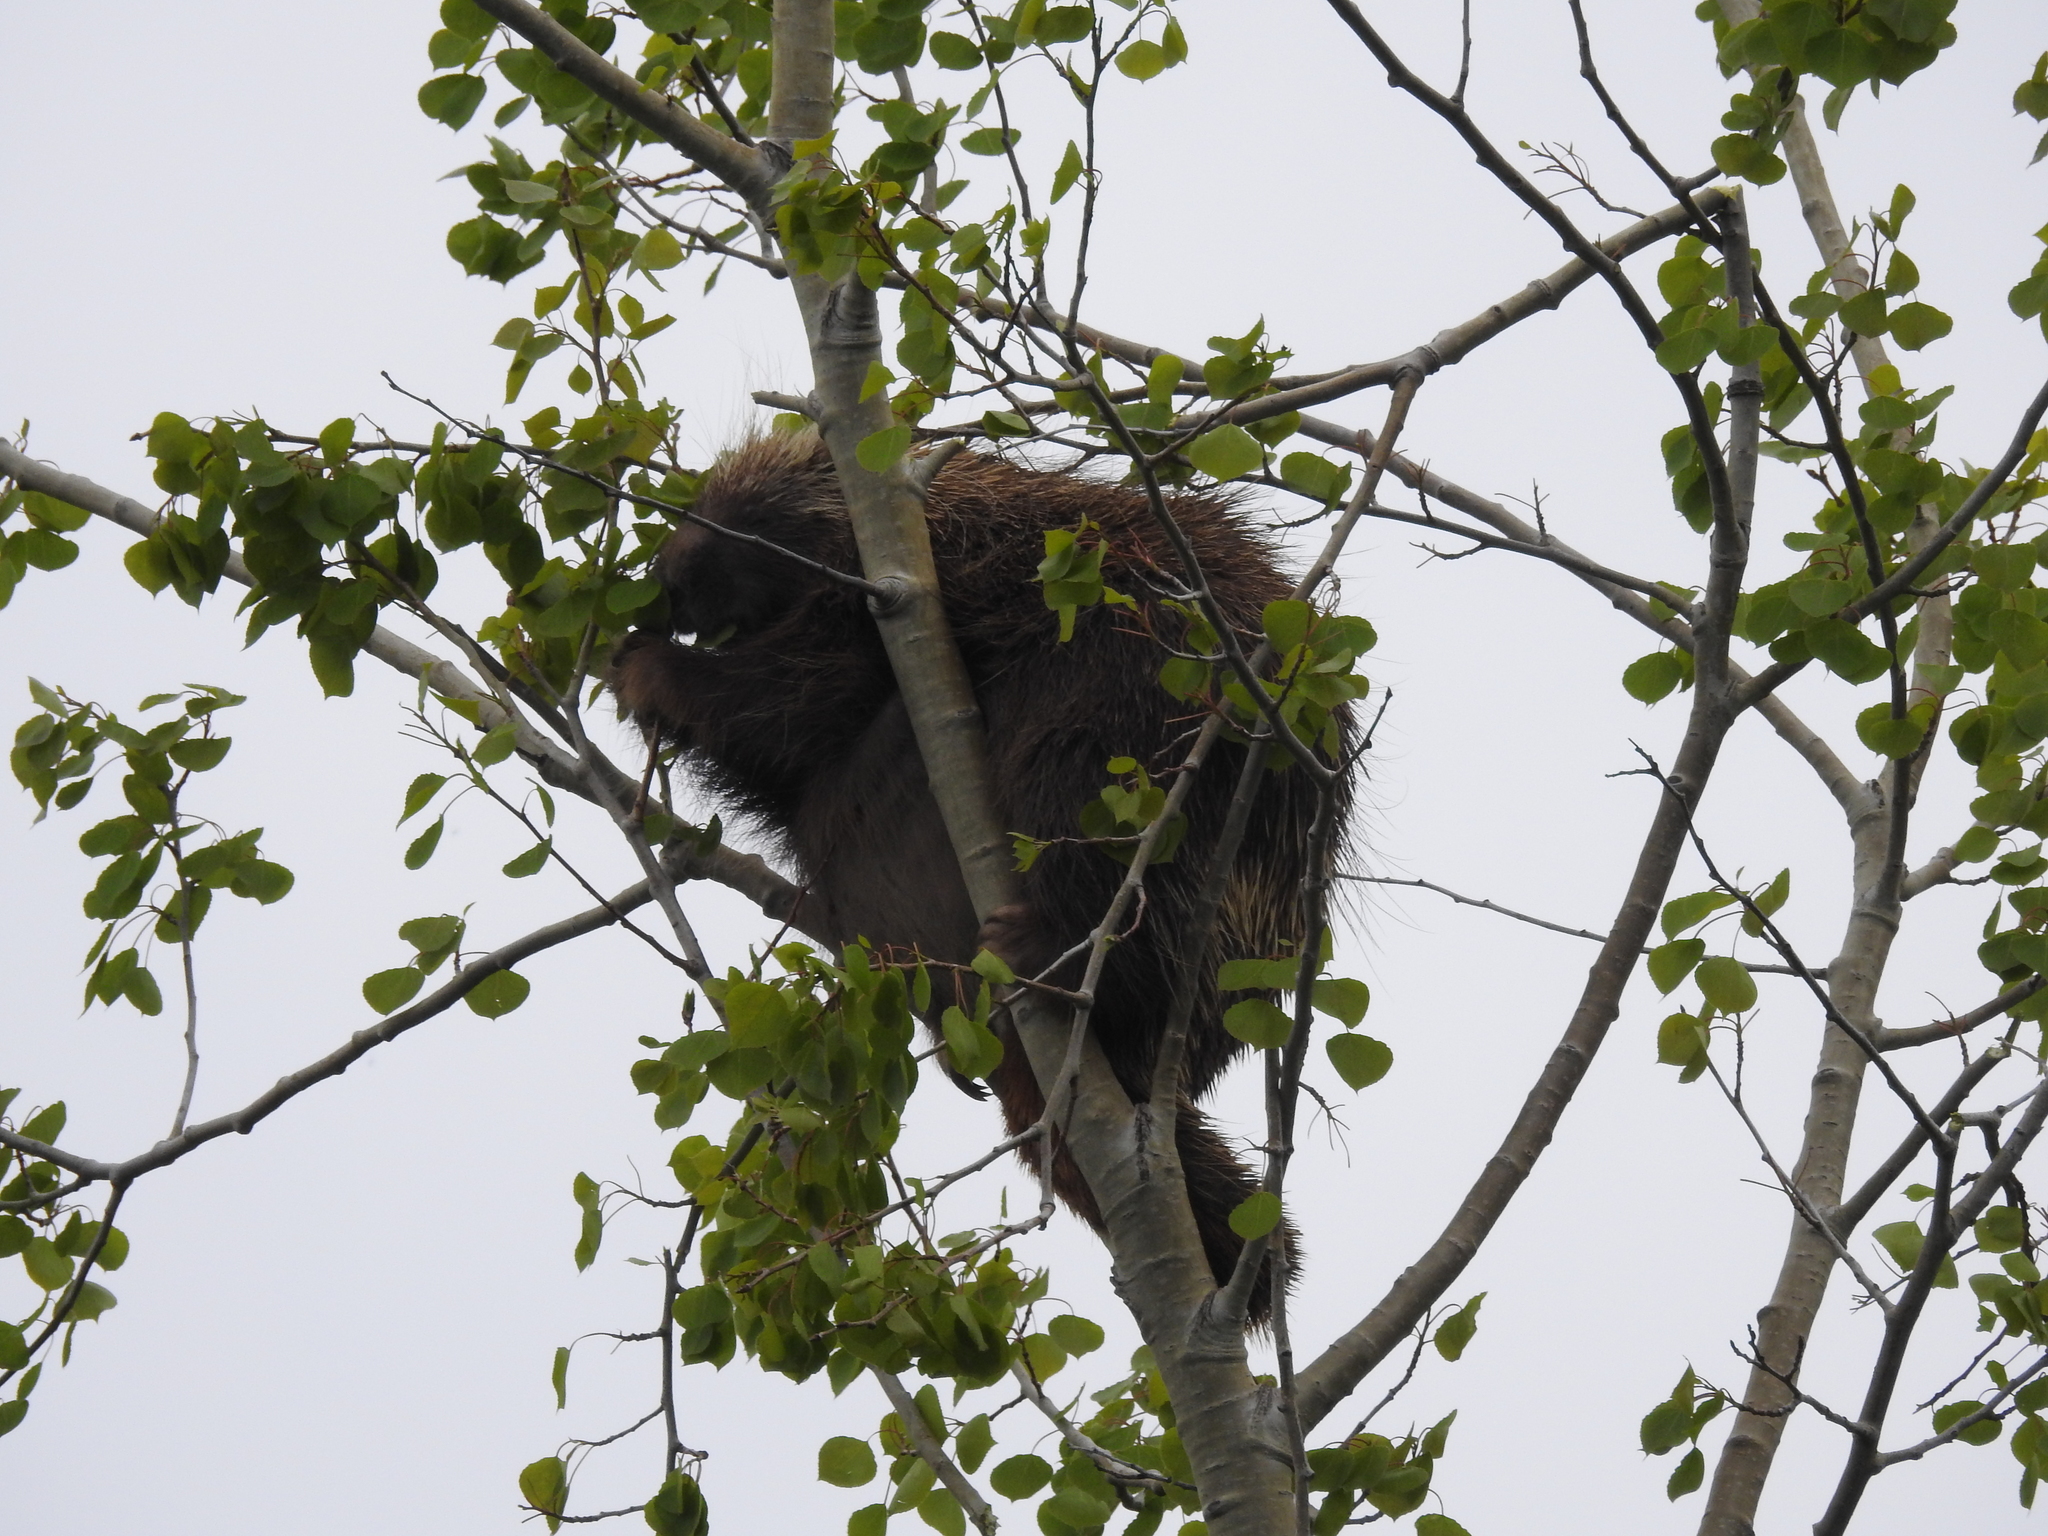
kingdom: Animalia
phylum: Chordata
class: Mammalia
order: Rodentia
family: Erethizontidae
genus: Erethizon
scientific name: Erethizon dorsatus
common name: North american porcupine
